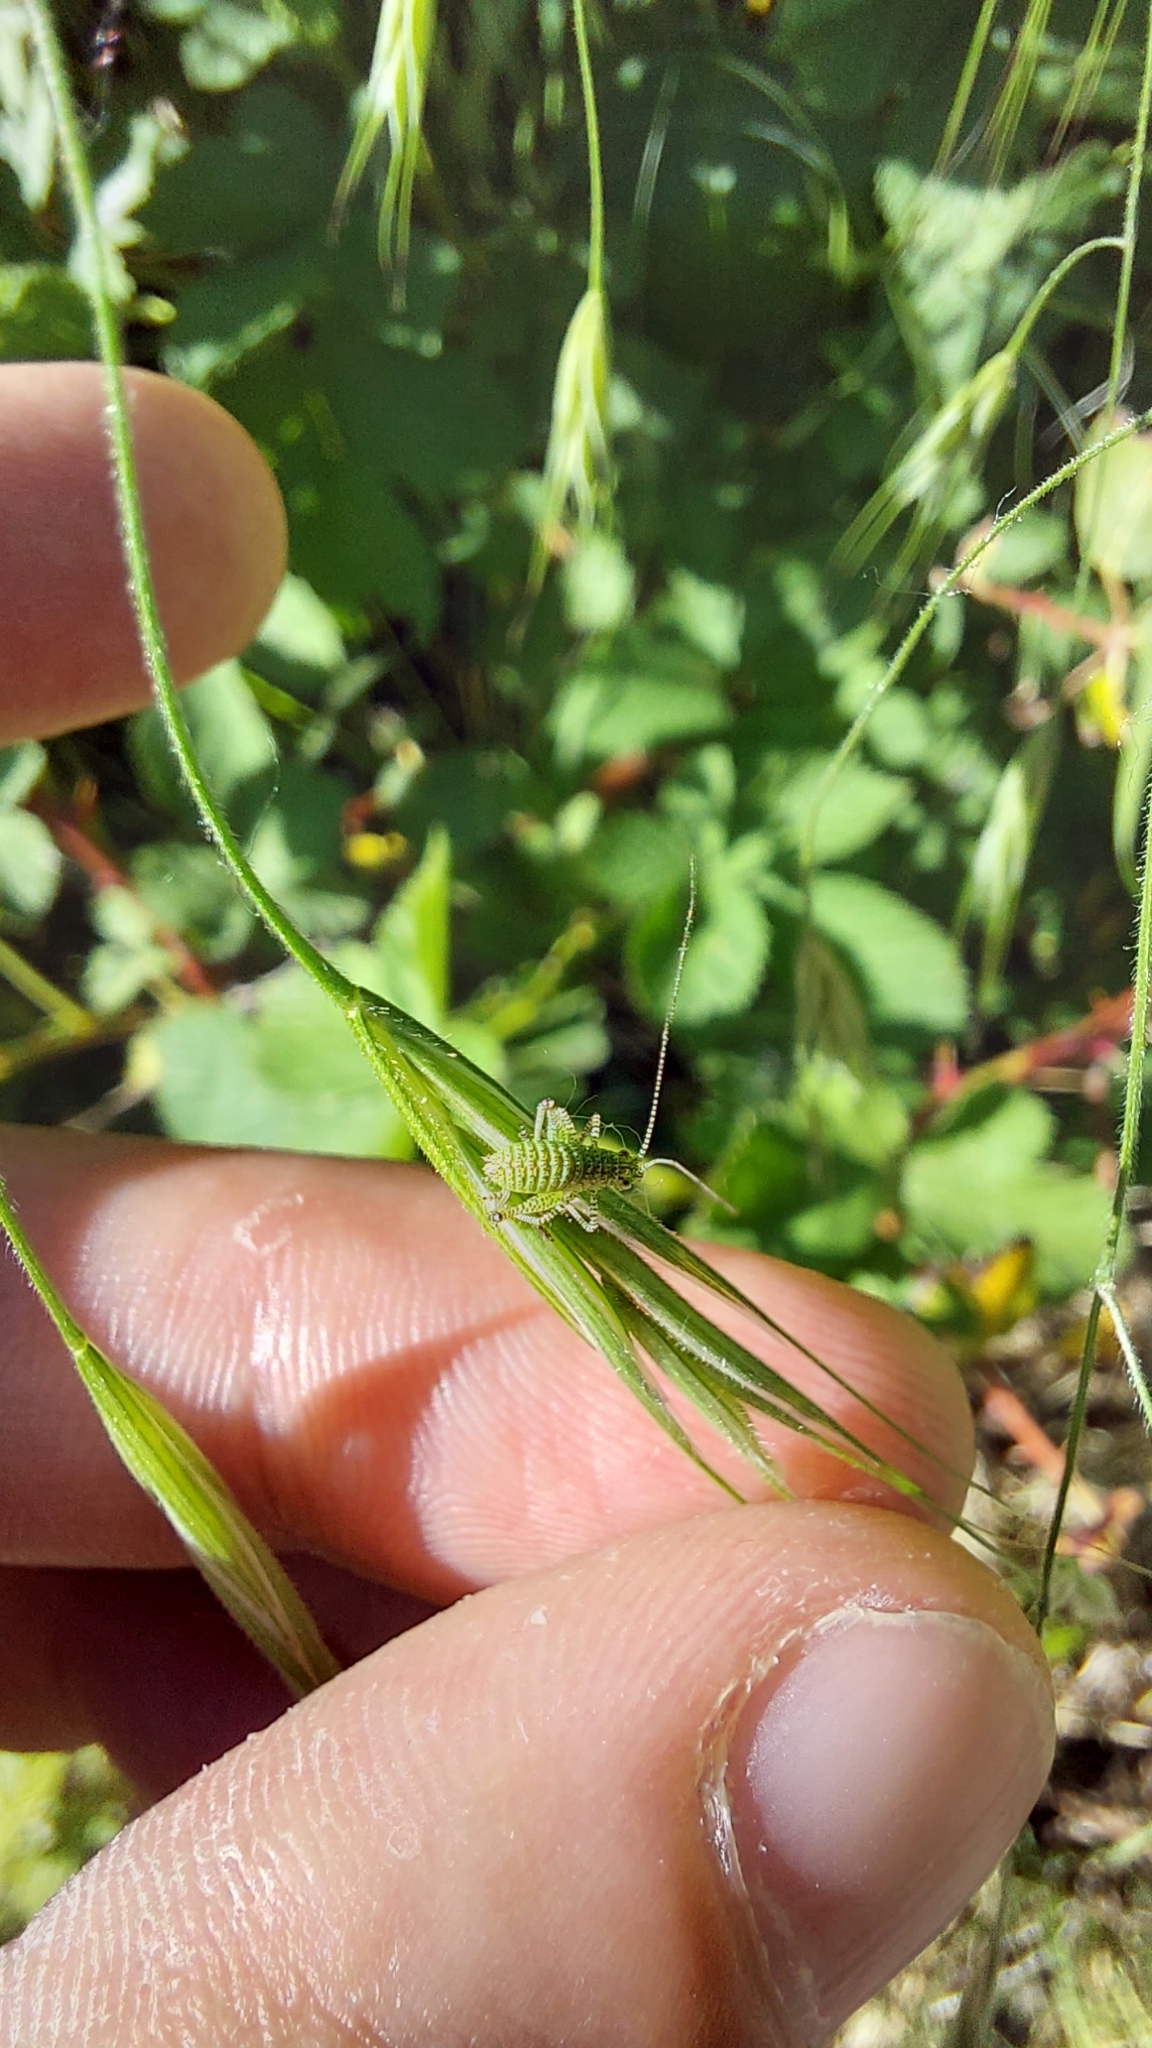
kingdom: Animalia
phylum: Arthropoda
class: Insecta
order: Orthoptera
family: Tettigoniidae
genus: Leptophyes
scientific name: Leptophyes punctatissima
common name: Speckled bush-cricket
